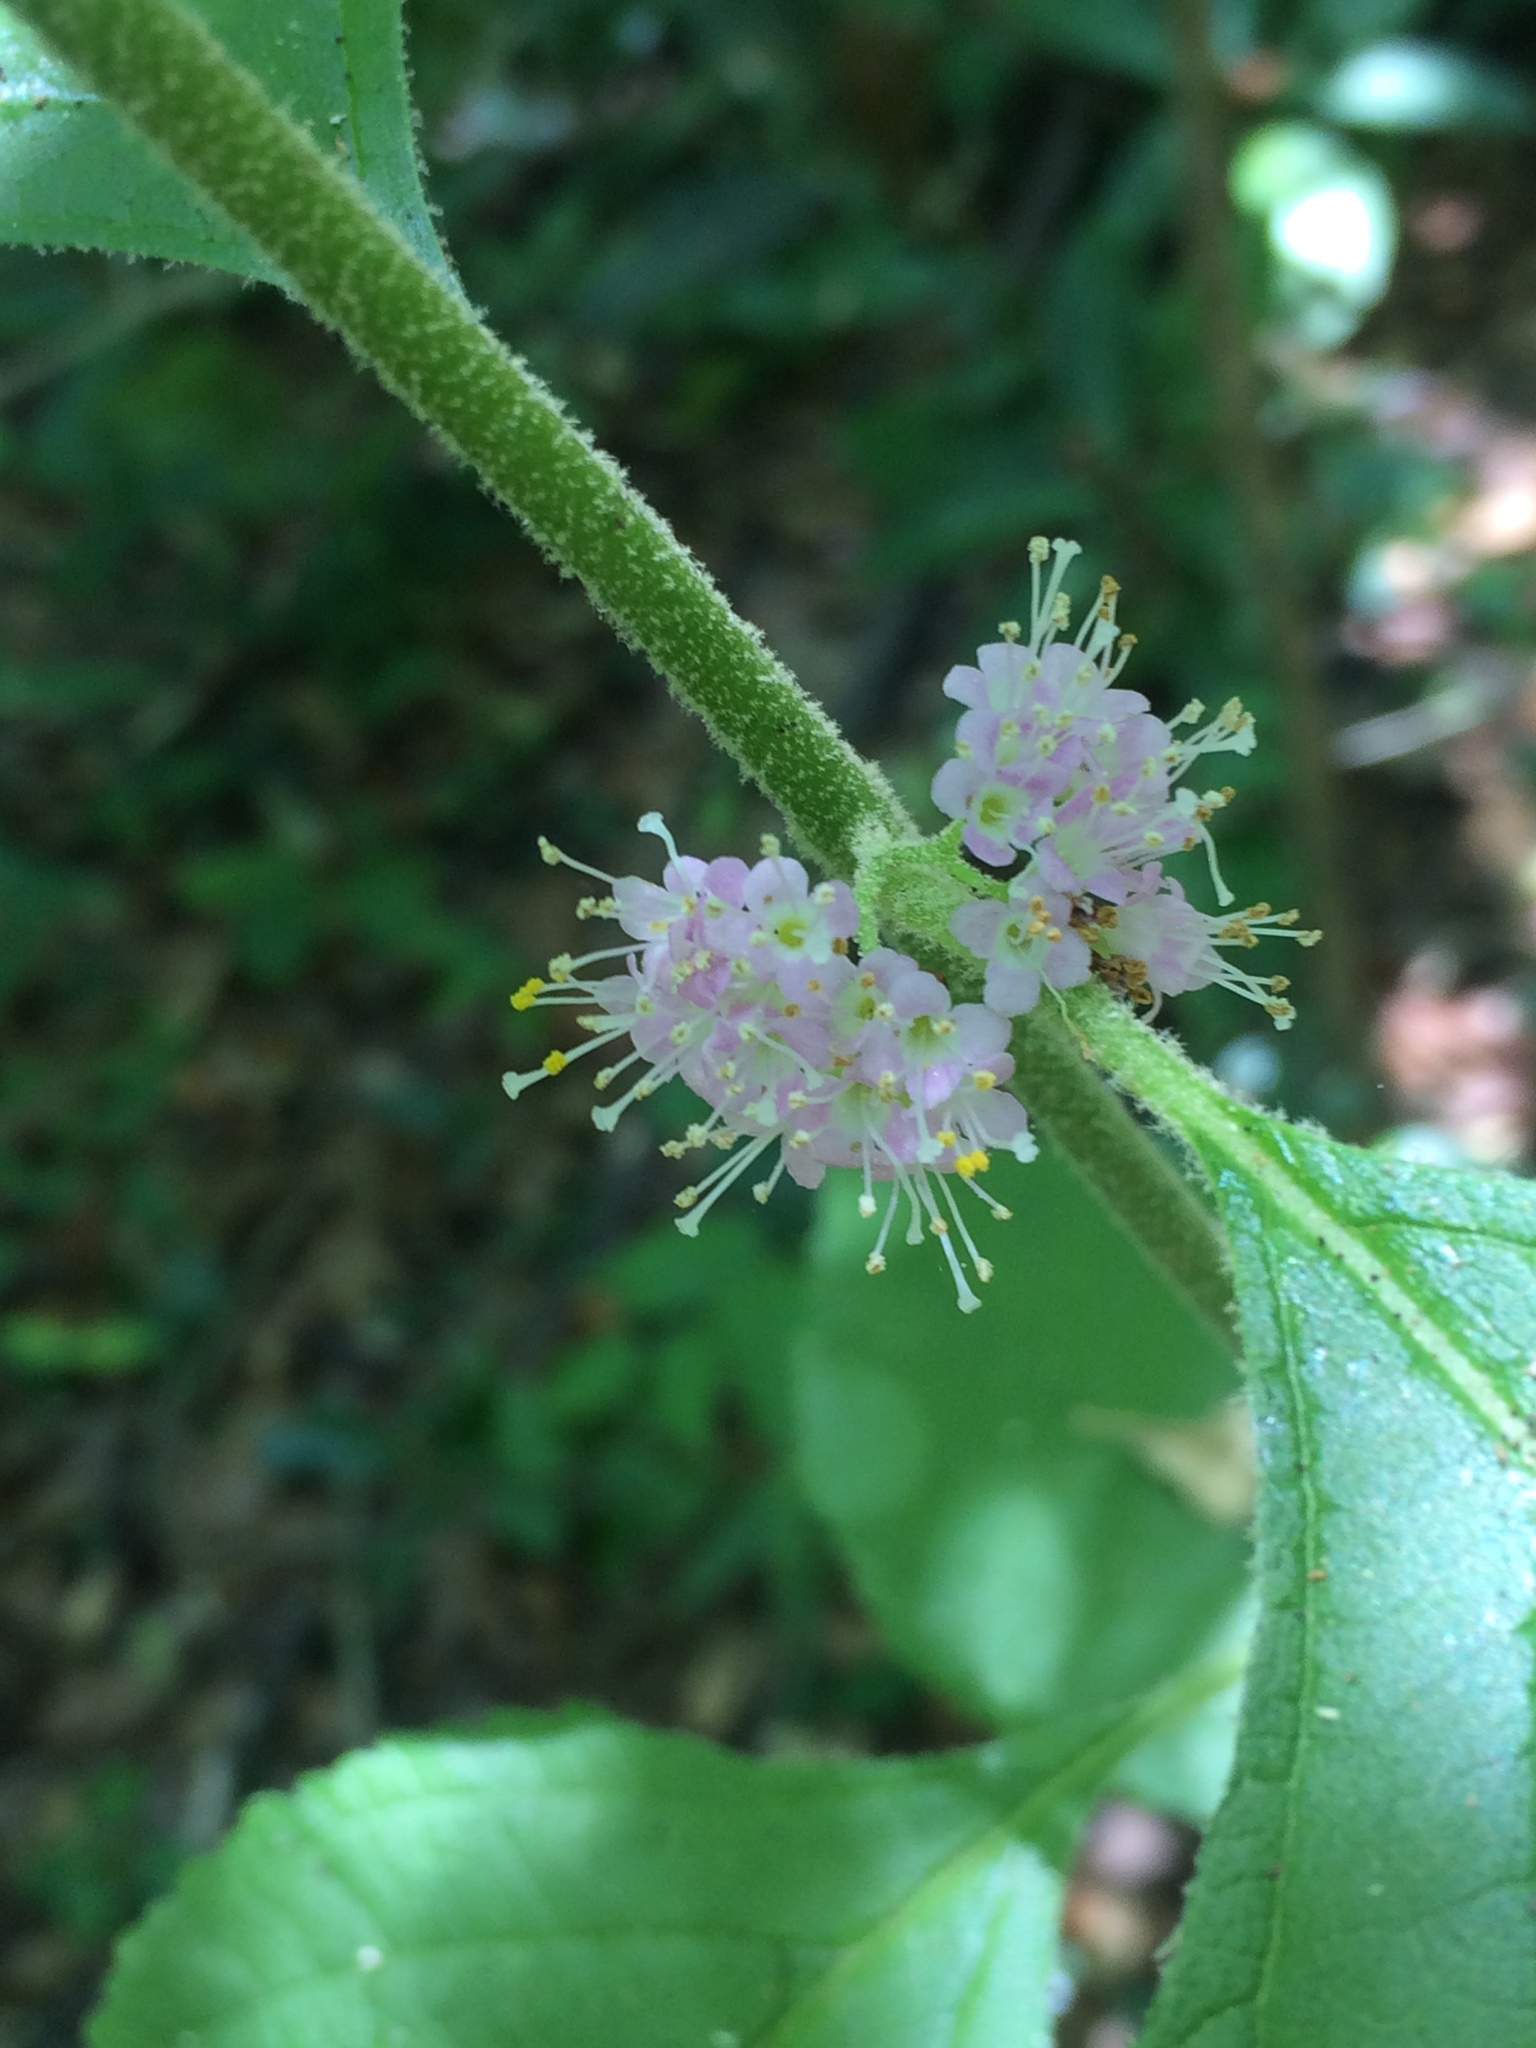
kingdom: Plantae
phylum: Tracheophyta
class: Magnoliopsida
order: Lamiales
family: Lamiaceae
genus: Callicarpa
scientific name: Callicarpa americana
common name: American beautyberry
